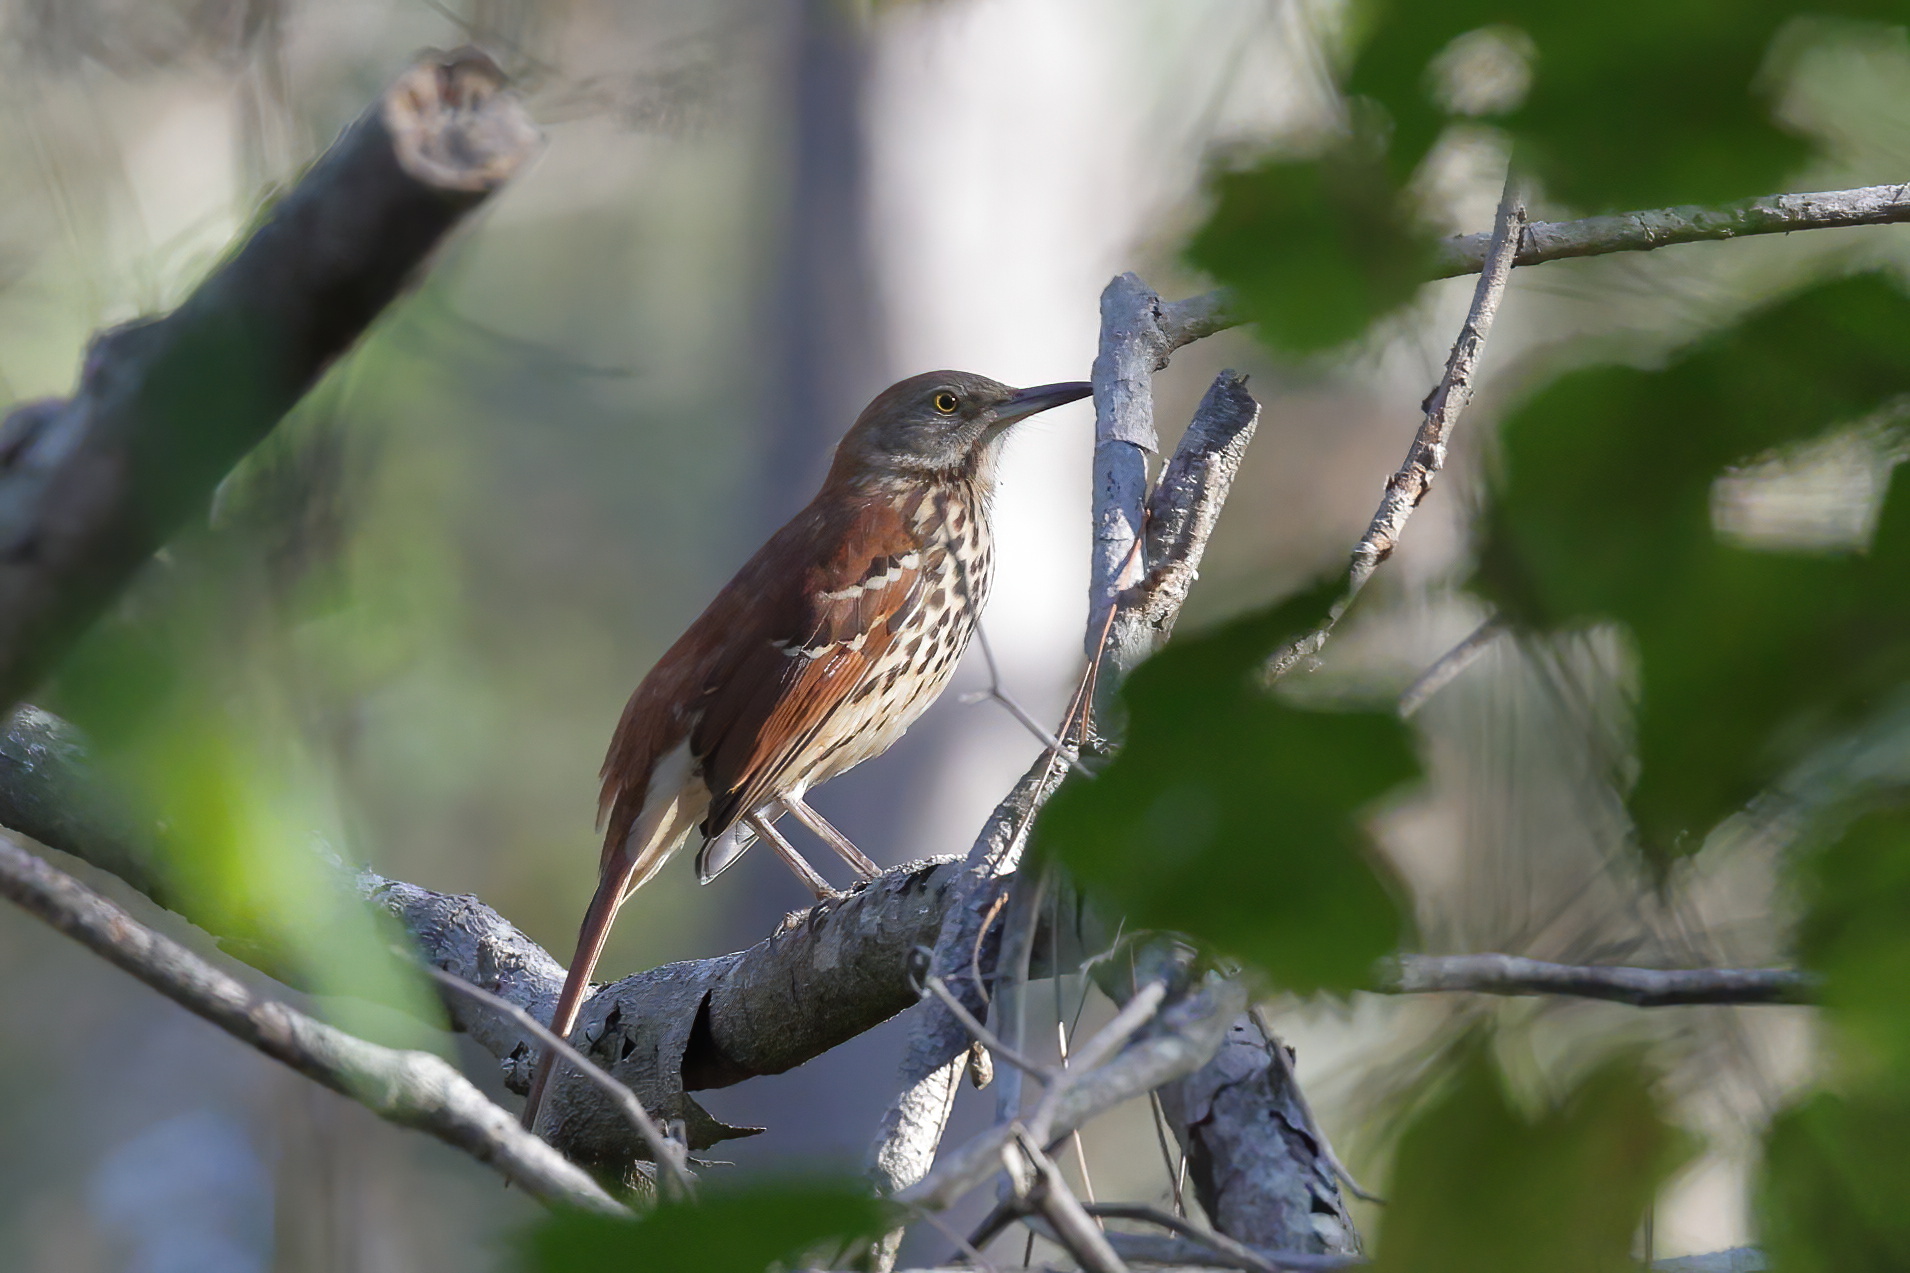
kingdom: Animalia
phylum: Chordata
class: Aves
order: Passeriformes
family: Mimidae
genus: Toxostoma
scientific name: Toxostoma rufum
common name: Brown thrasher
